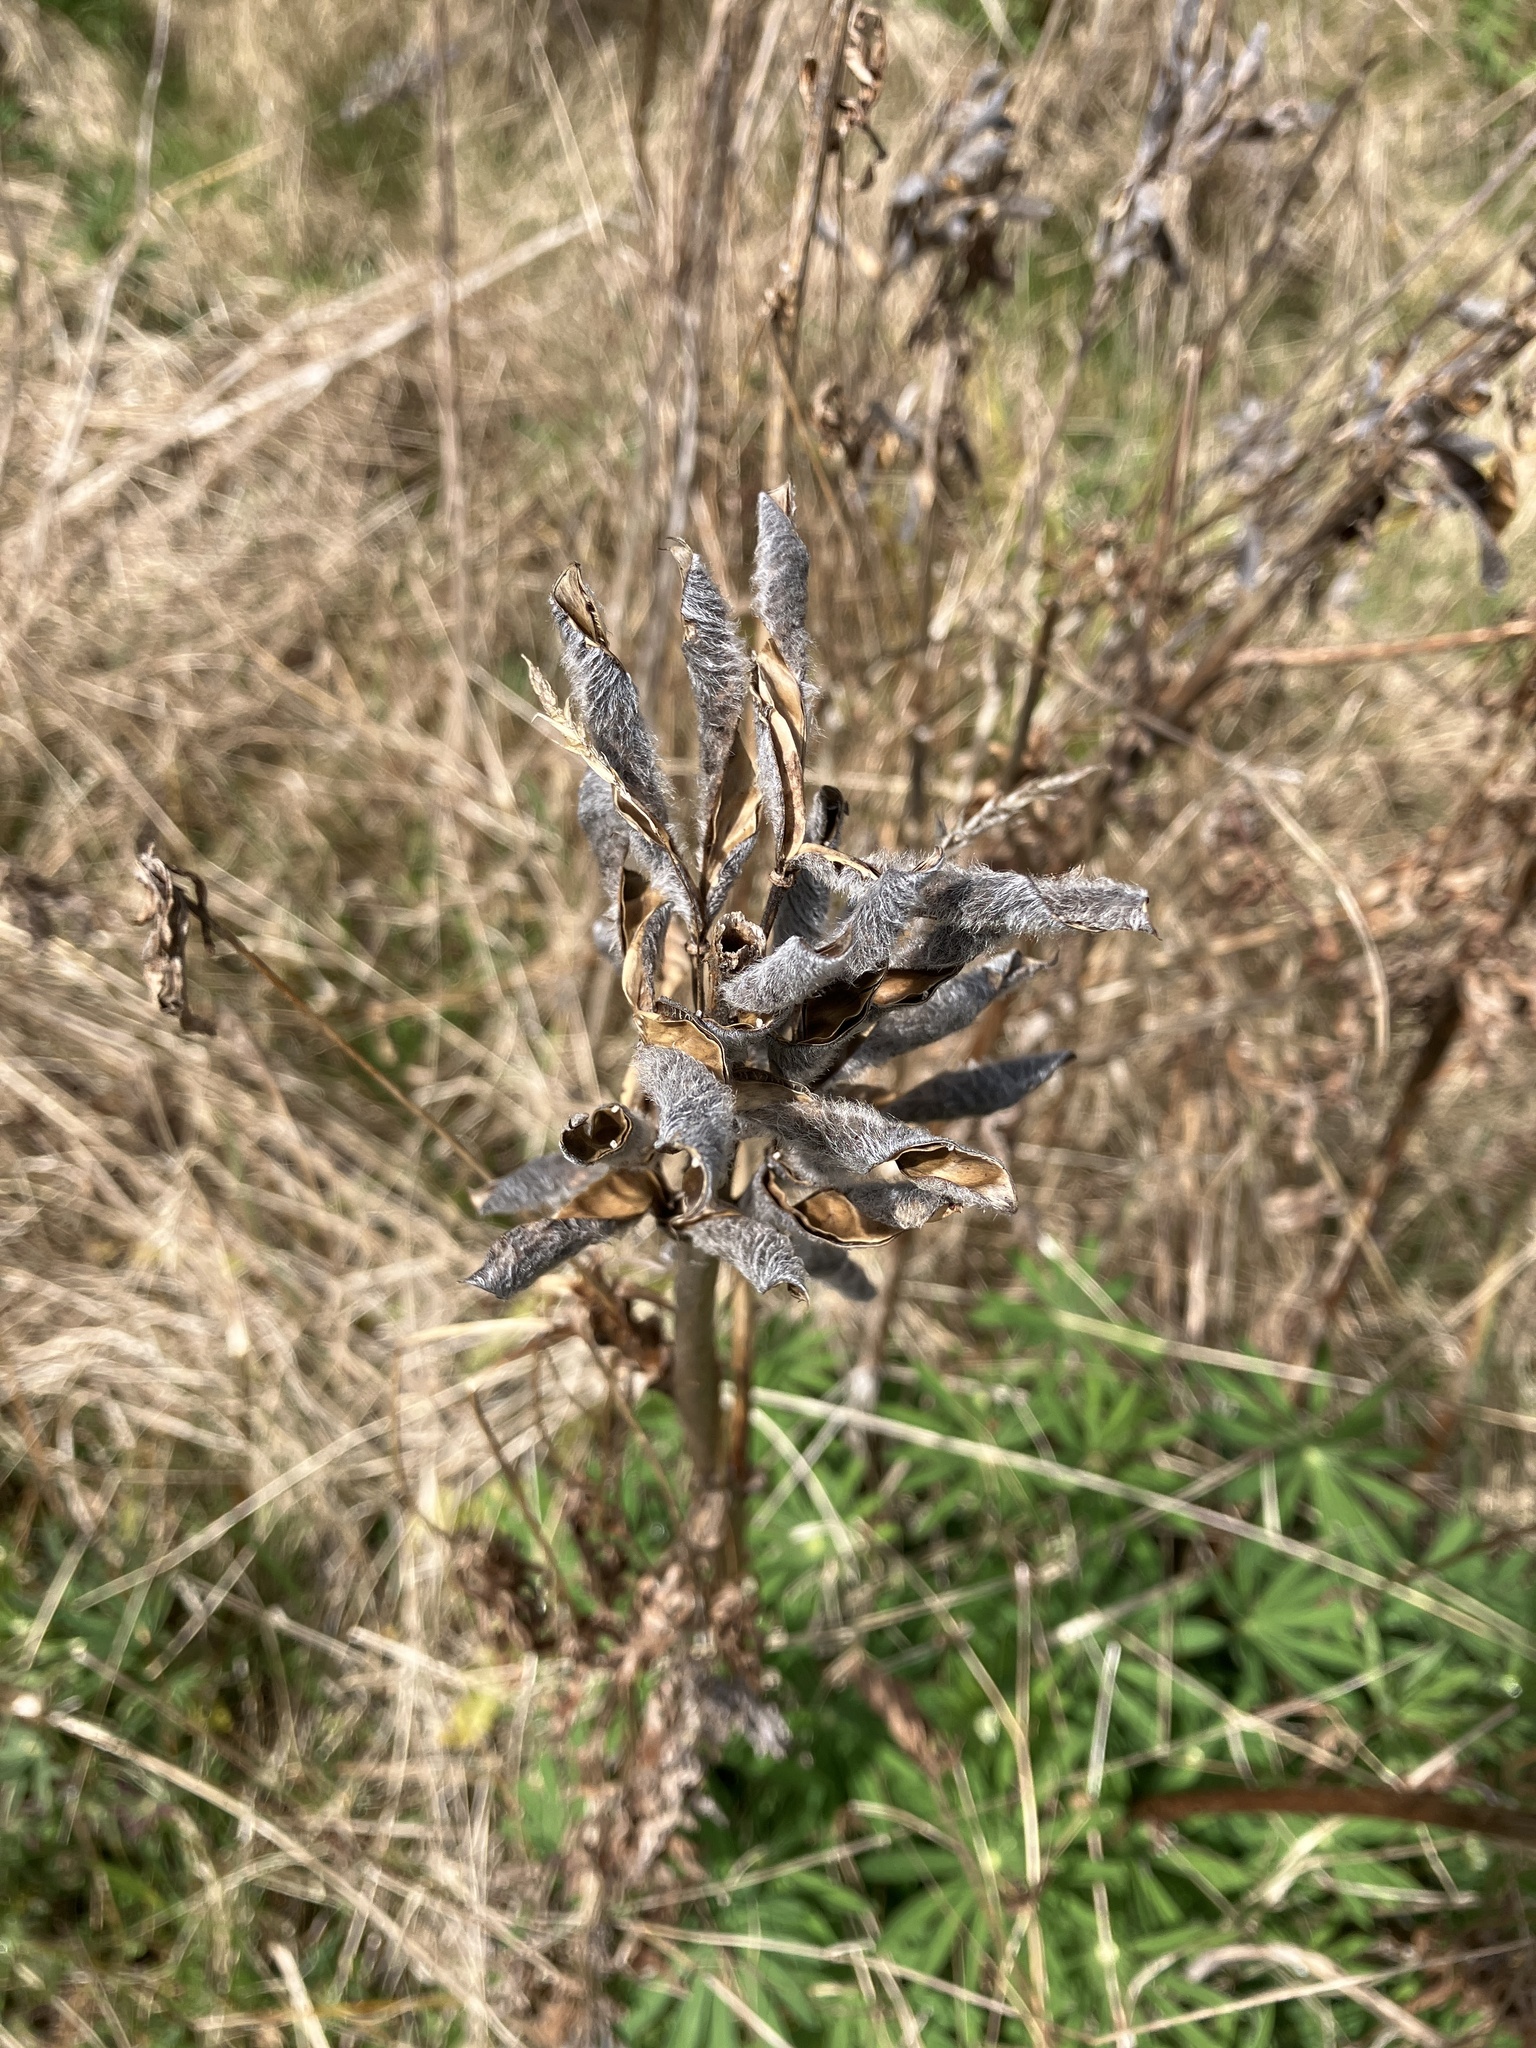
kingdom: Plantae
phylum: Tracheophyta
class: Magnoliopsida
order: Fabales
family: Fabaceae
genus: Lupinus
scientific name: Lupinus polyphyllus
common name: Garden lupin
